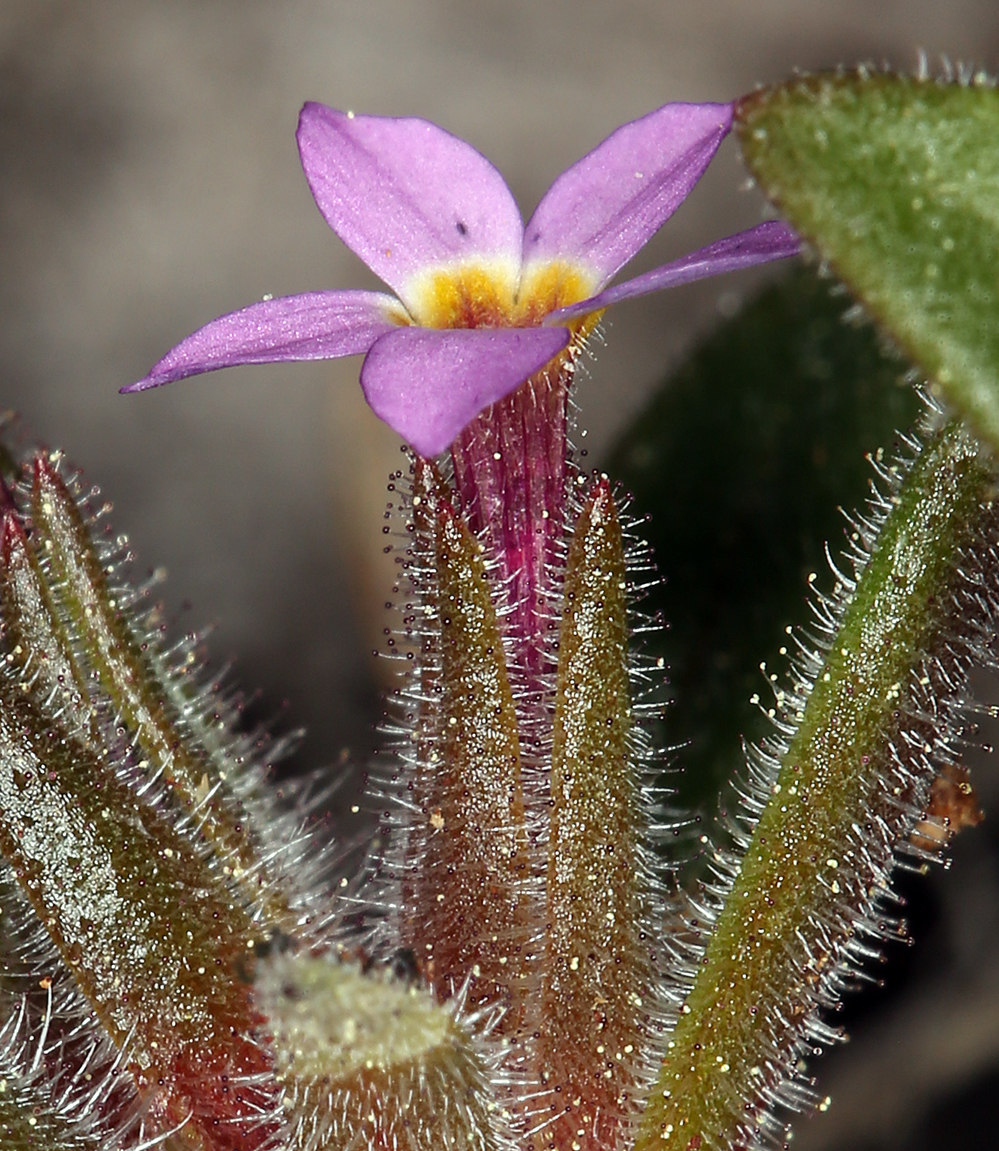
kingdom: Plantae
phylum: Tracheophyta
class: Magnoliopsida
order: Ericales
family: Polemoniaceae
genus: Collomia
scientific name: Collomia diversifolia
